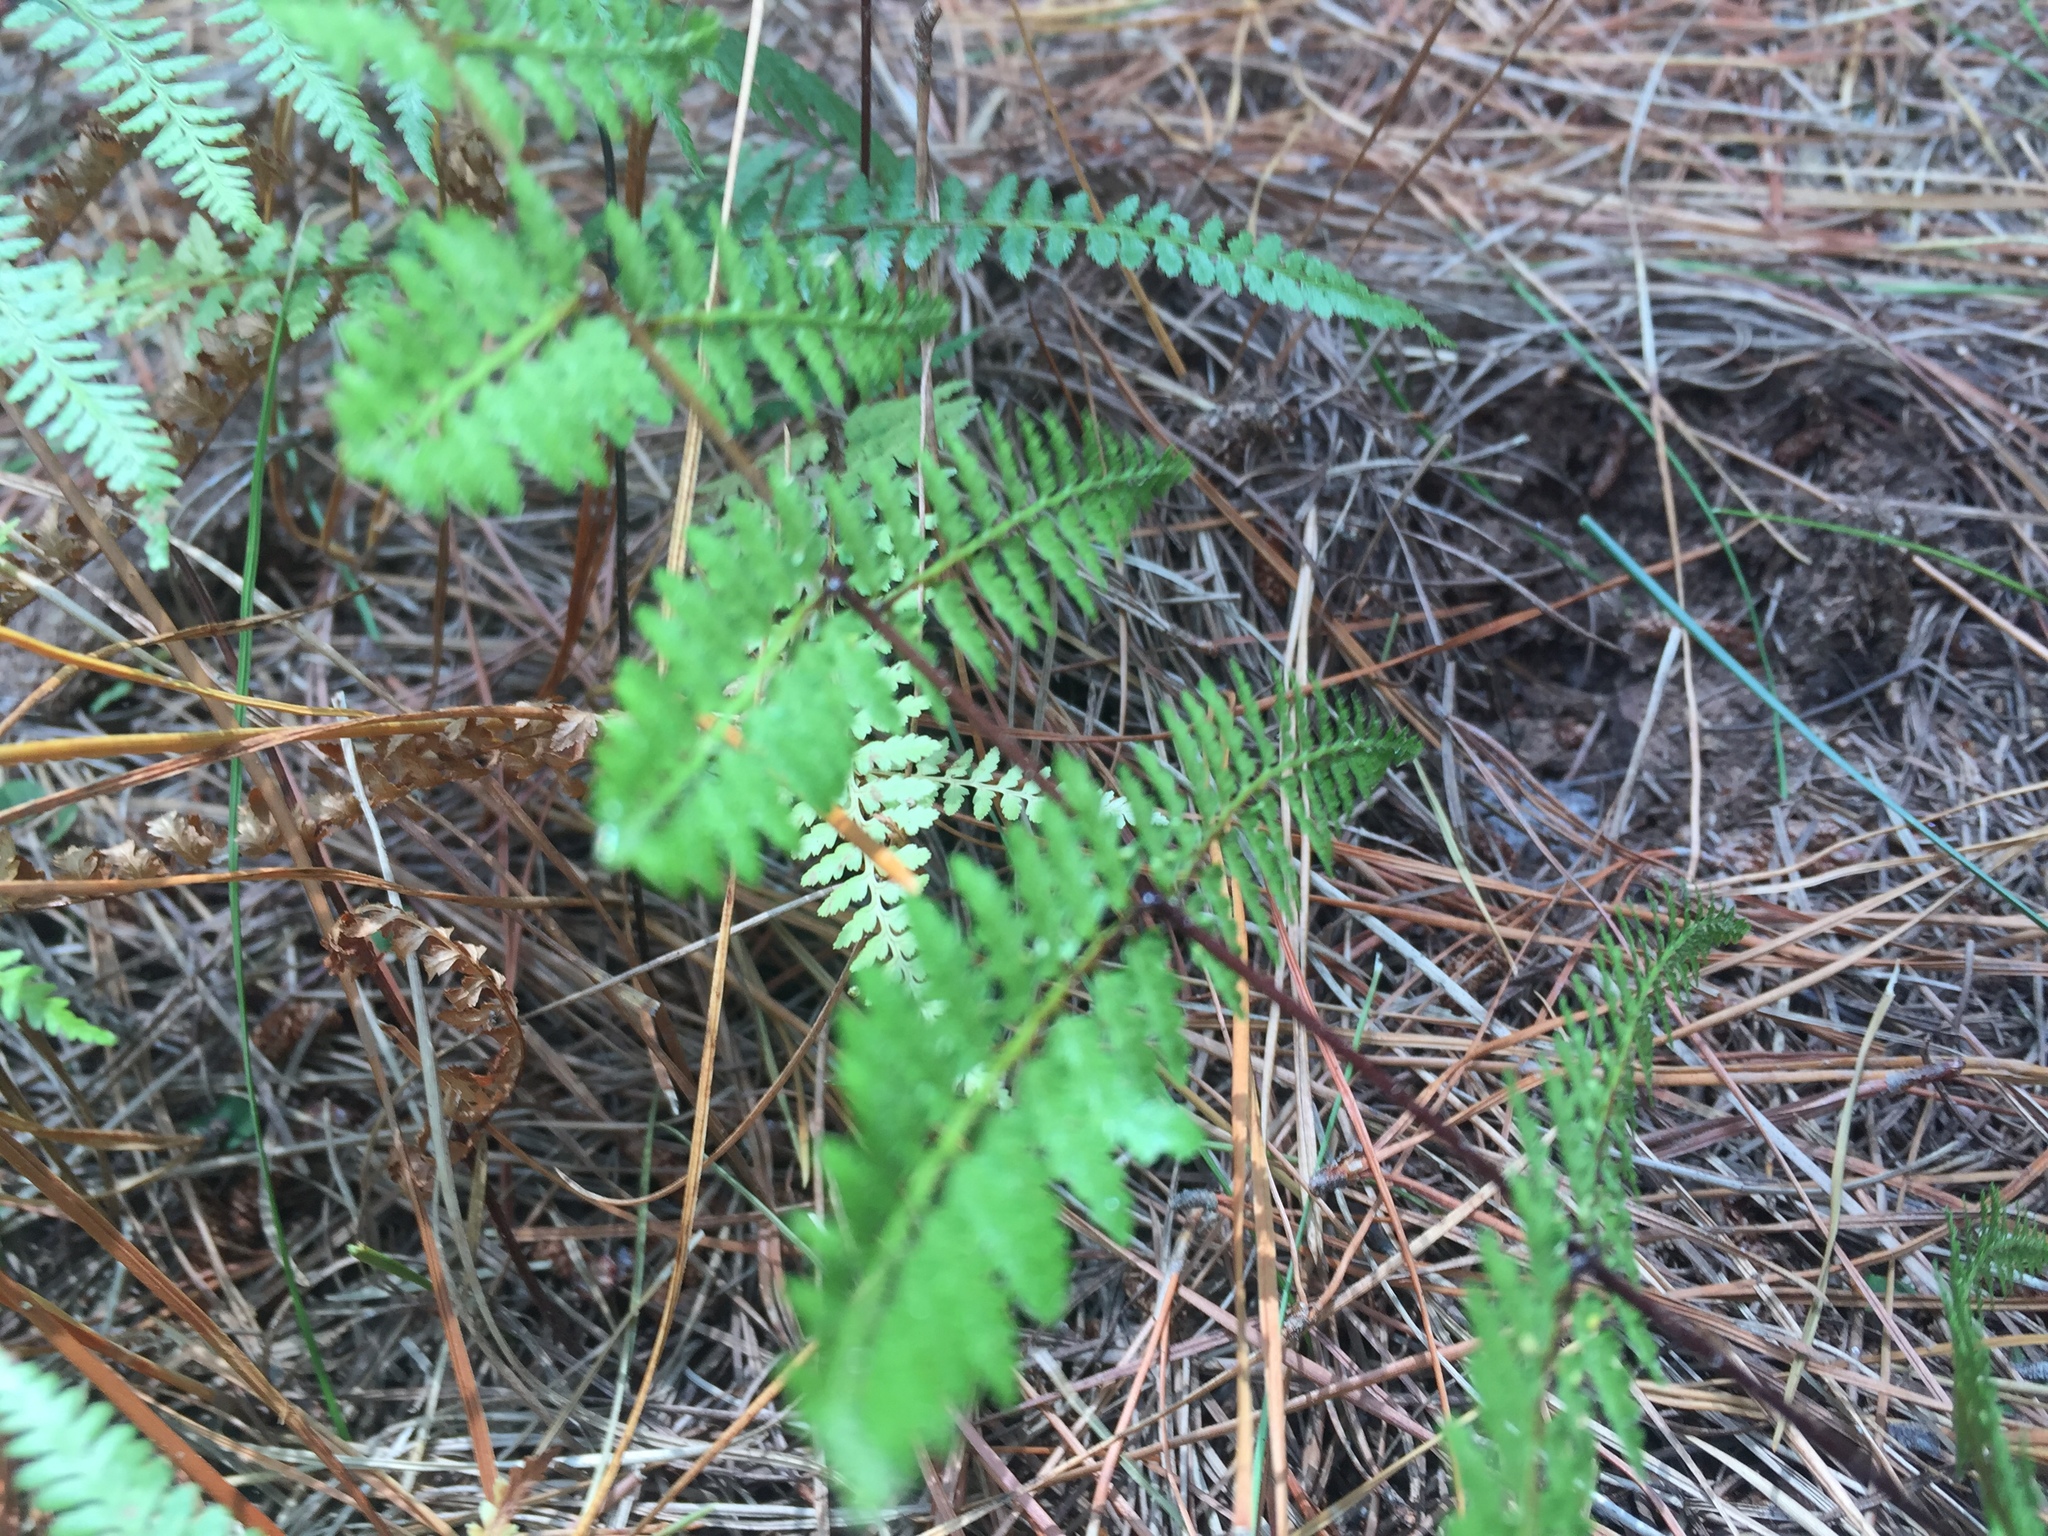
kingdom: Plantae
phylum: Tracheophyta
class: Polypodiopsida
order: Polypodiales
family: Dennstaedtiaceae
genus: Hiya
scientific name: Hiya distans
